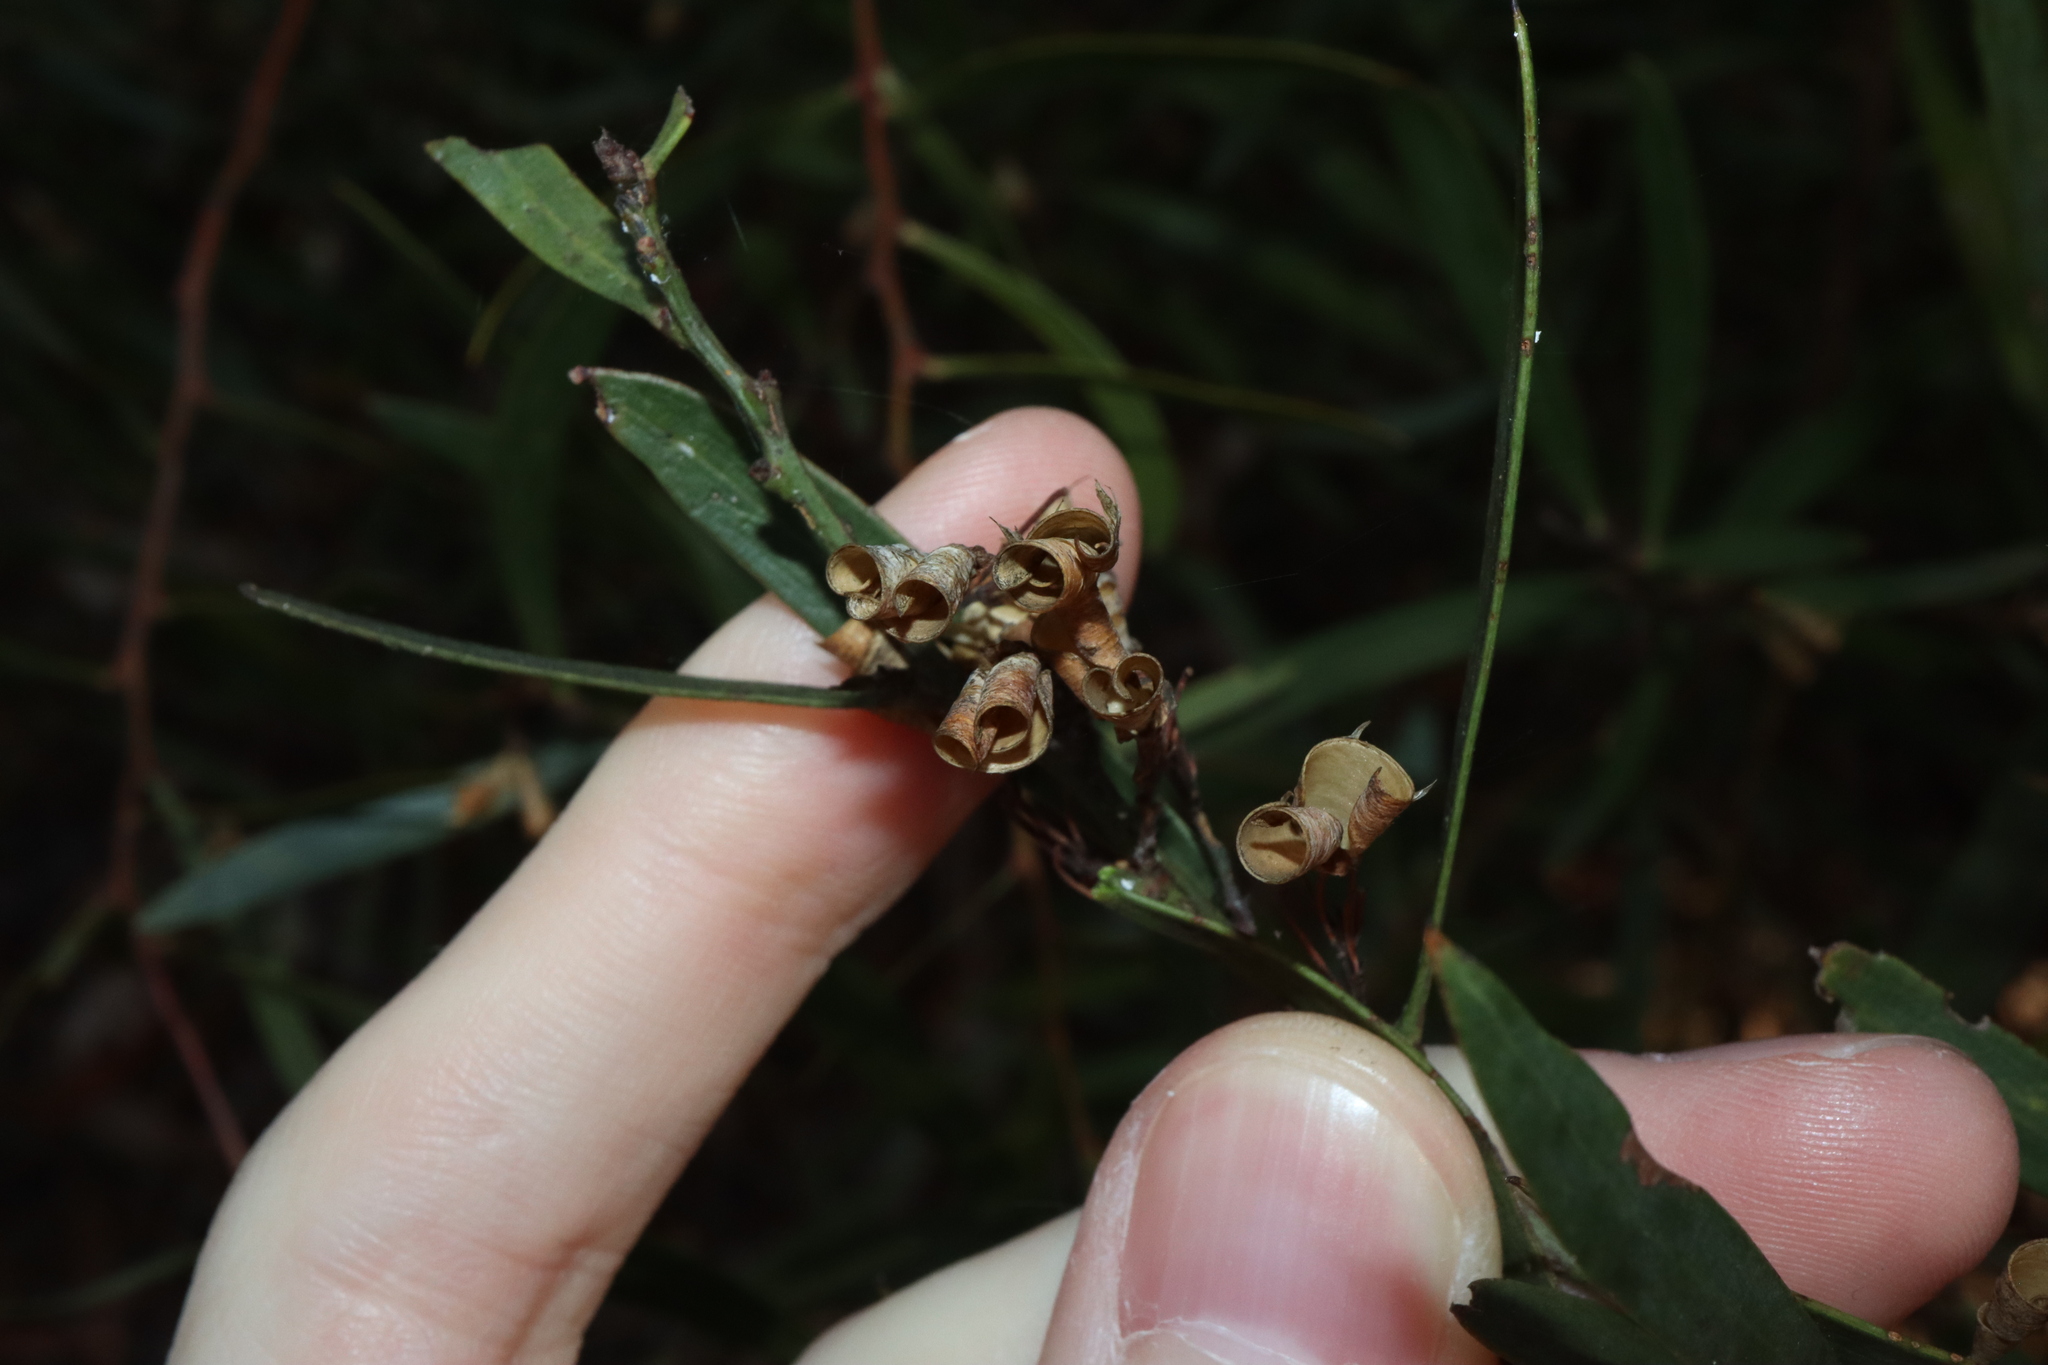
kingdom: Plantae
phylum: Tracheophyta
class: Magnoliopsida
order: Fabales
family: Fabaceae
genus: Daviesia
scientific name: Daviesia mimosoides
